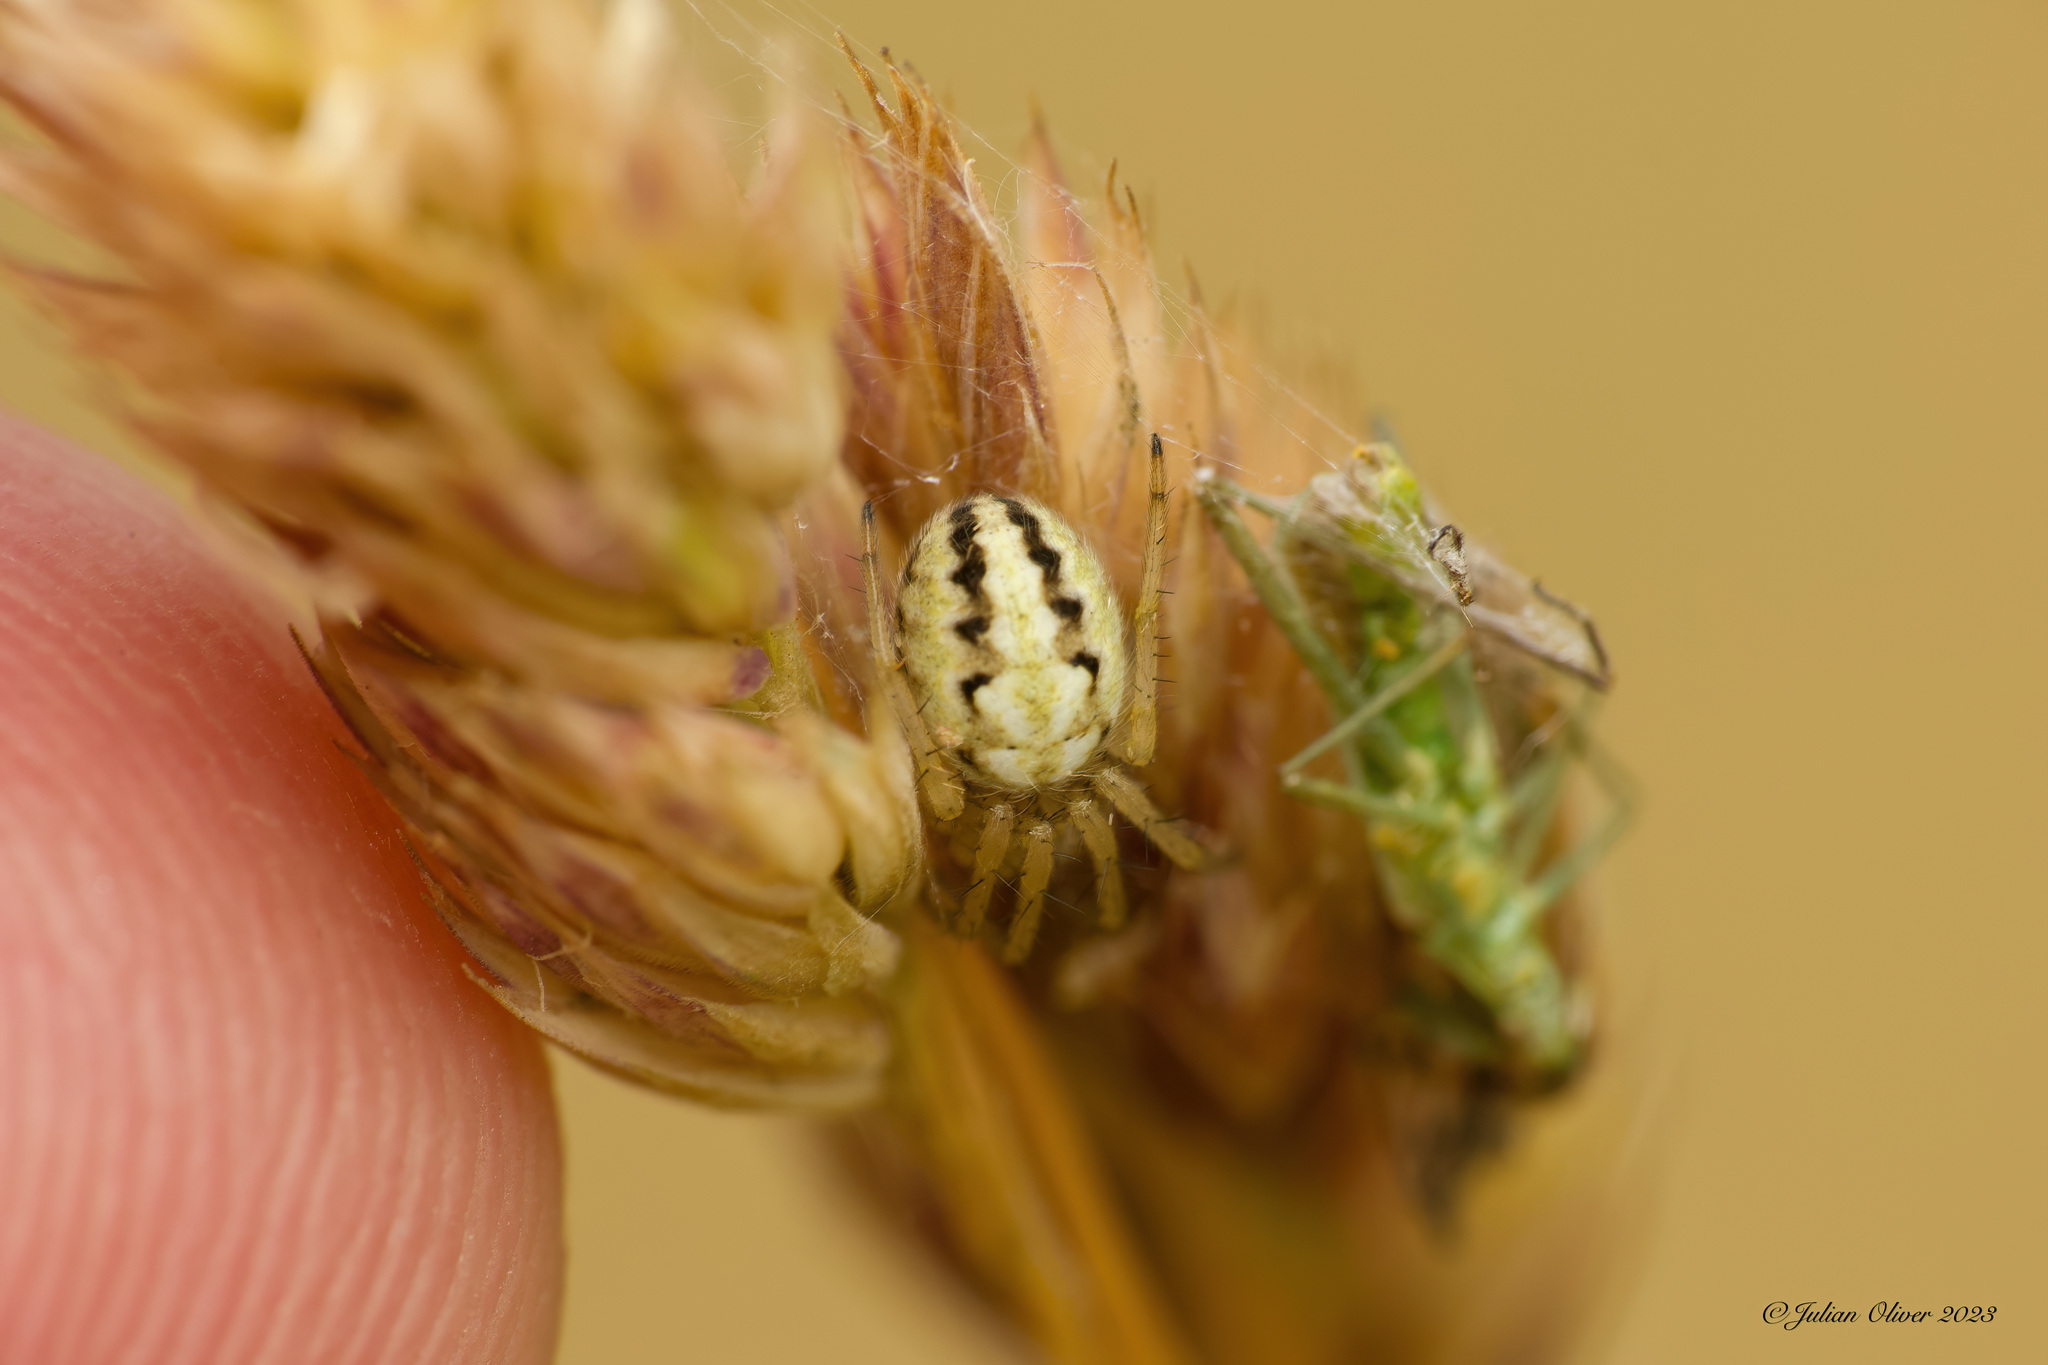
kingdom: Animalia
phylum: Arthropoda
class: Arachnida
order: Araneae
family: Araneidae
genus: Neoscona
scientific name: Neoscona adianta
